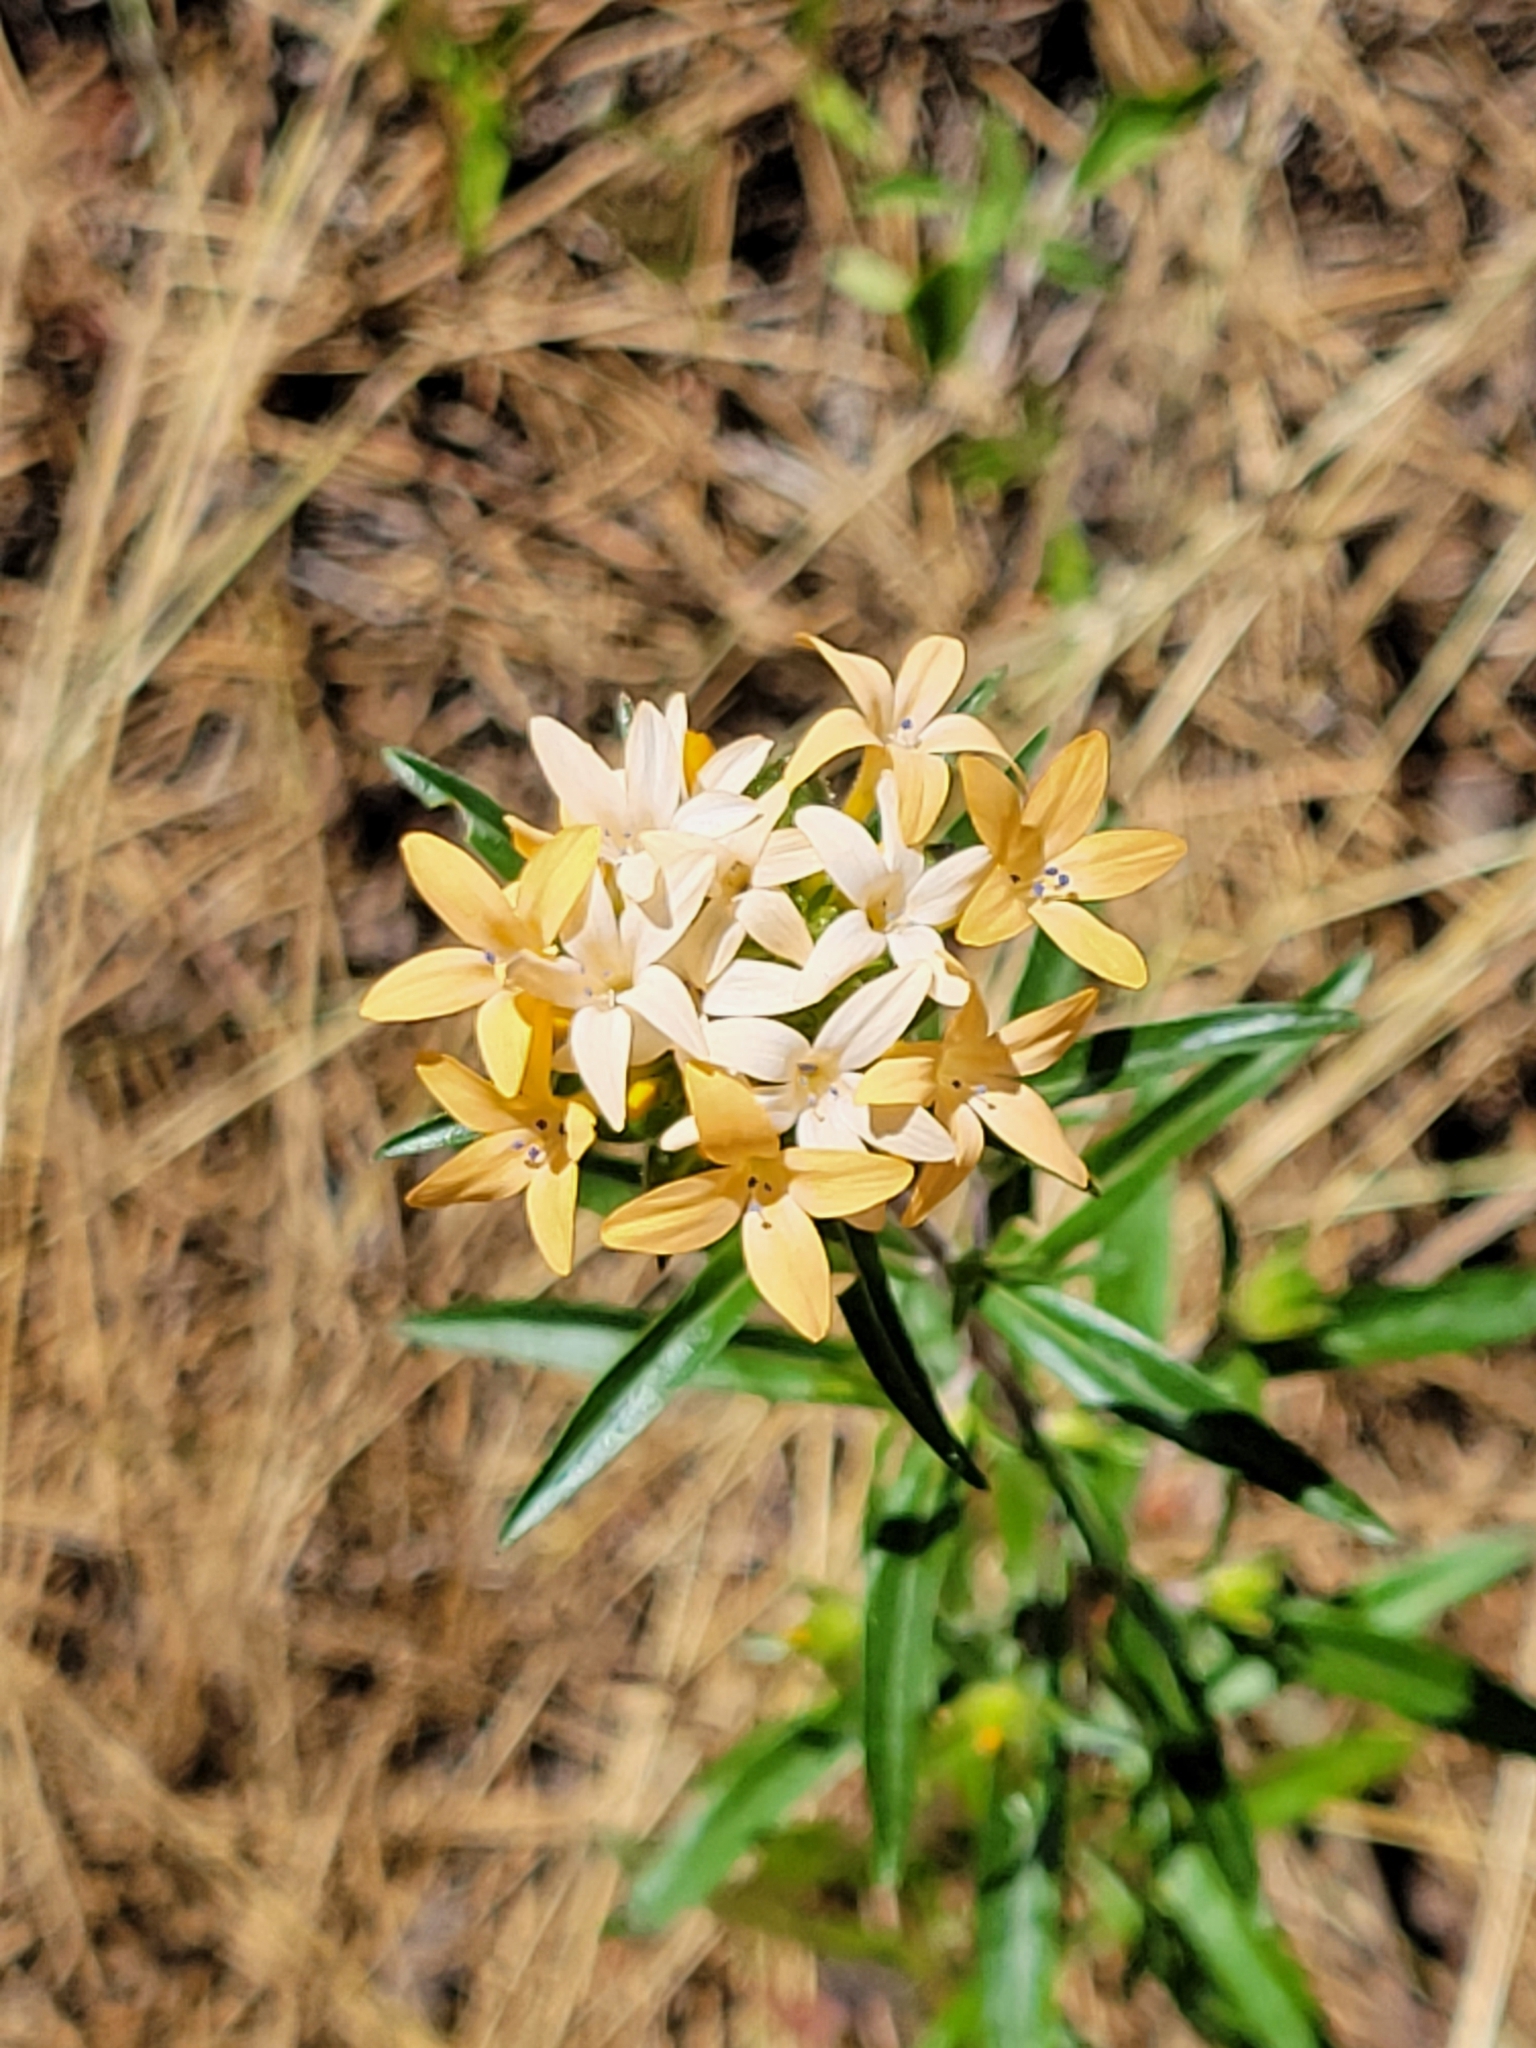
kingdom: Plantae
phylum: Tracheophyta
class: Magnoliopsida
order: Ericales
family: Polemoniaceae
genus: Collomia
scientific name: Collomia grandiflora
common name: California strawflower
